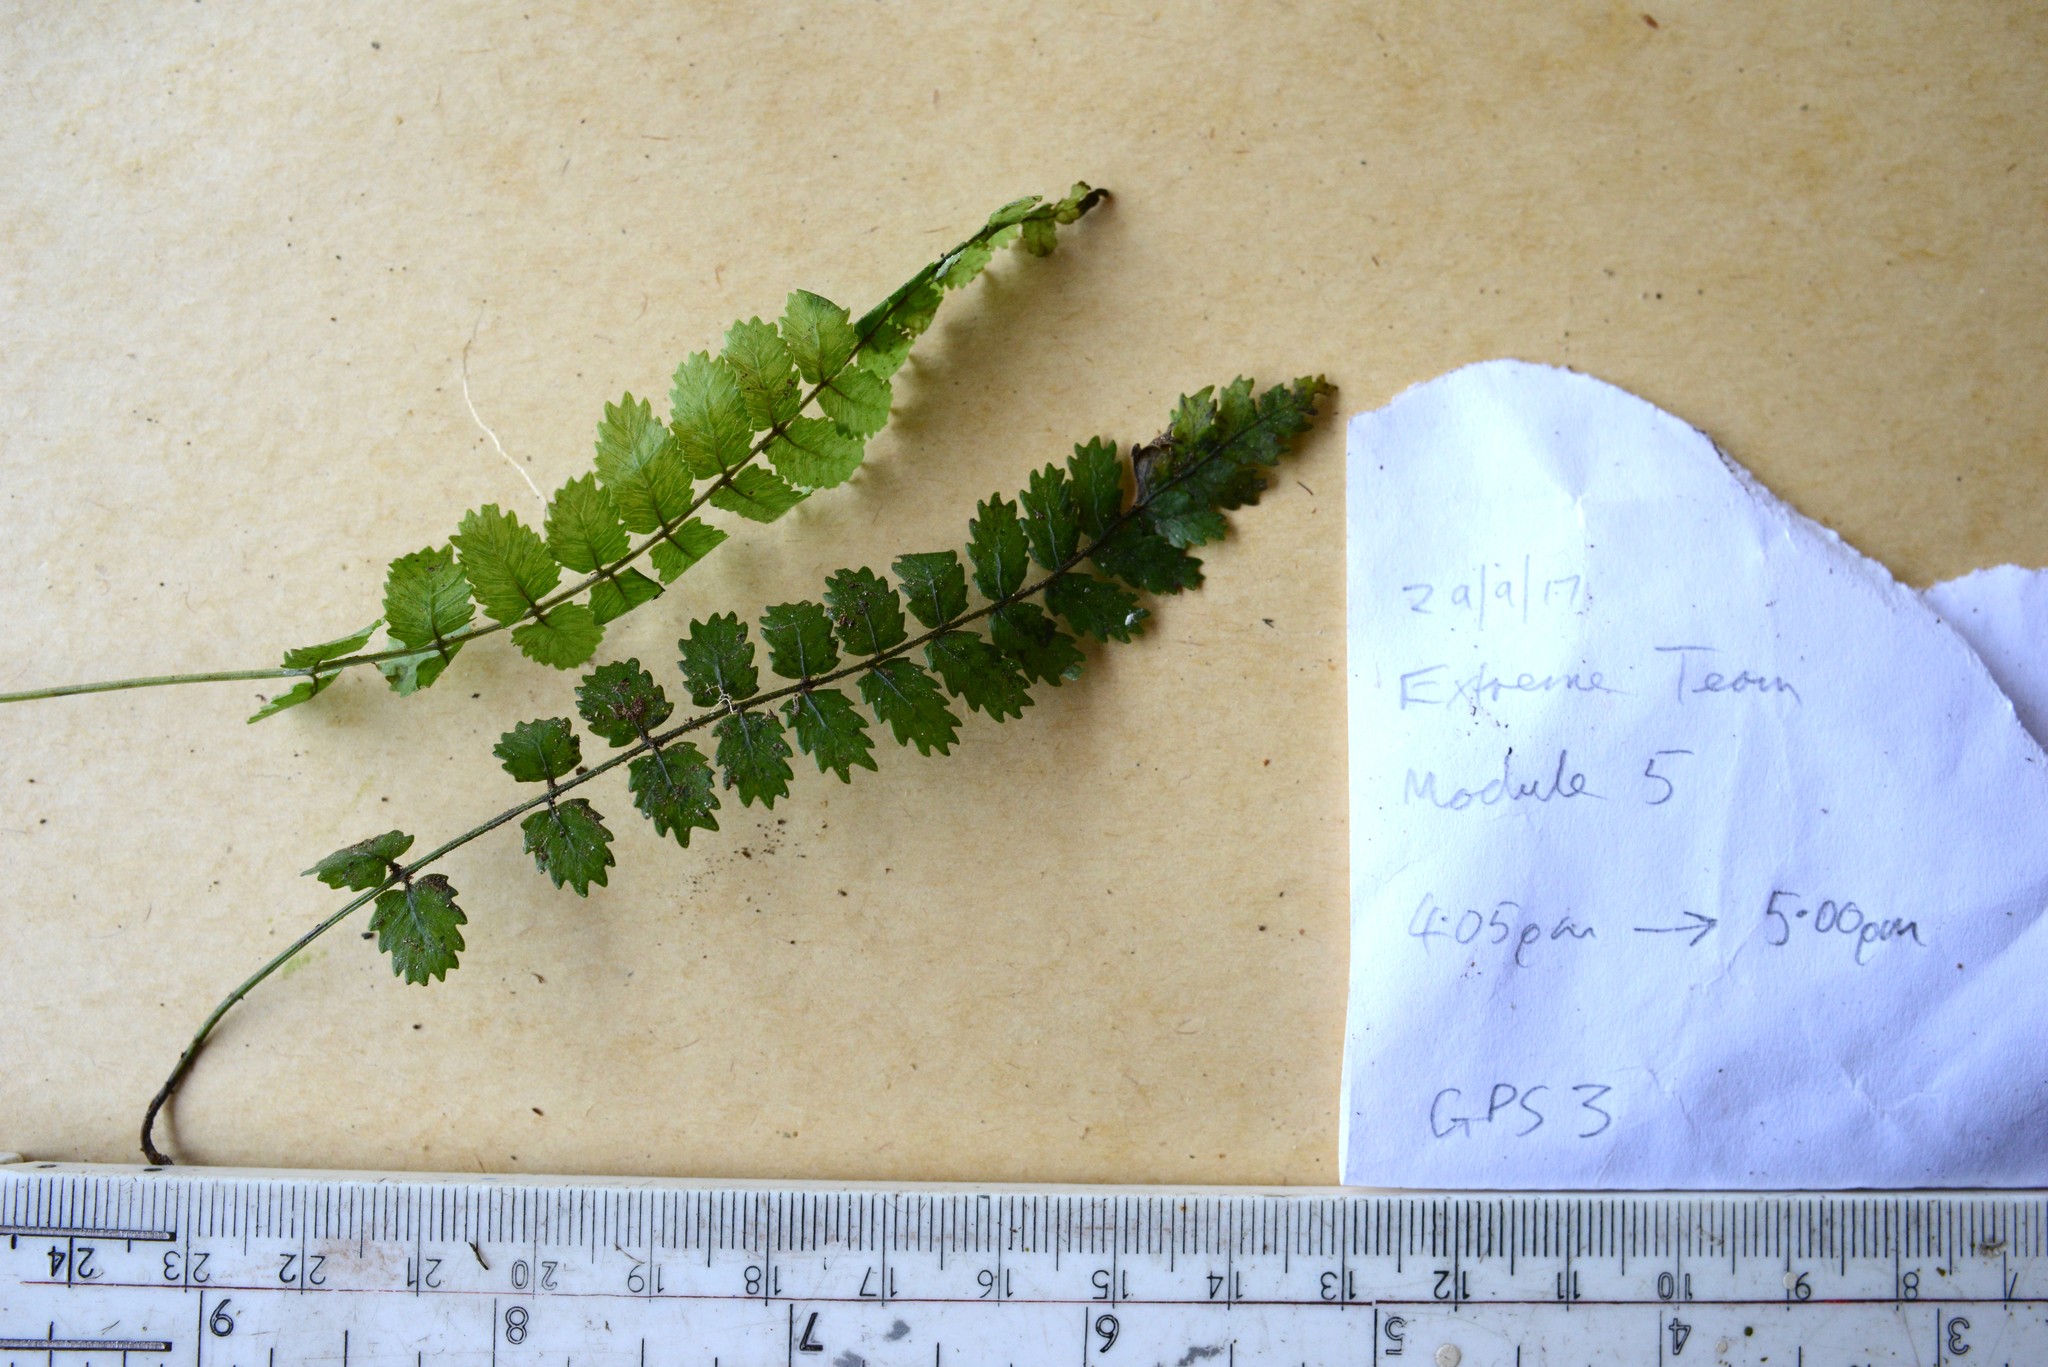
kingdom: Plantae
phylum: Tracheophyta
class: Polypodiopsida
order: Polypodiales
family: Blechnaceae
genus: Icarus
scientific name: Icarus filiformis
